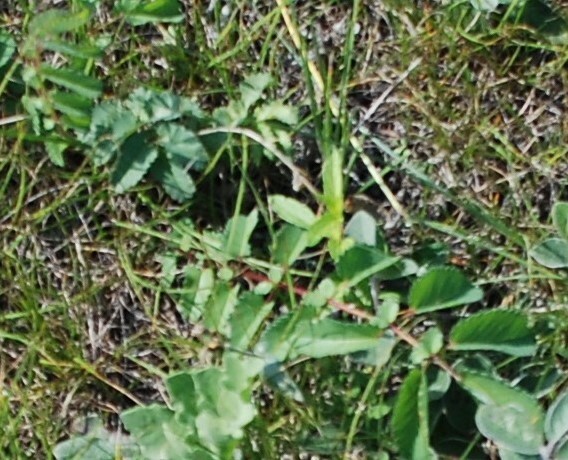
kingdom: Plantae
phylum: Tracheophyta
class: Magnoliopsida
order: Rosales
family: Rosaceae
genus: Sanguisorba
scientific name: Sanguisorba officinalis
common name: Great burnet
